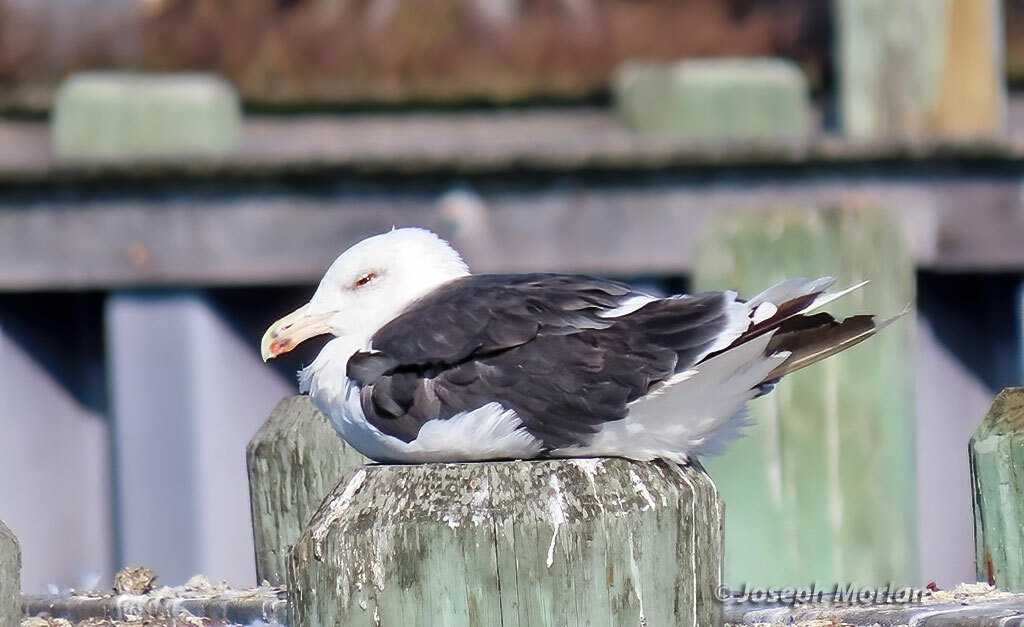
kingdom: Animalia
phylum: Chordata
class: Aves
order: Charadriiformes
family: Laridae
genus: Larus
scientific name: Larus marinus
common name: Great black-backed gull
